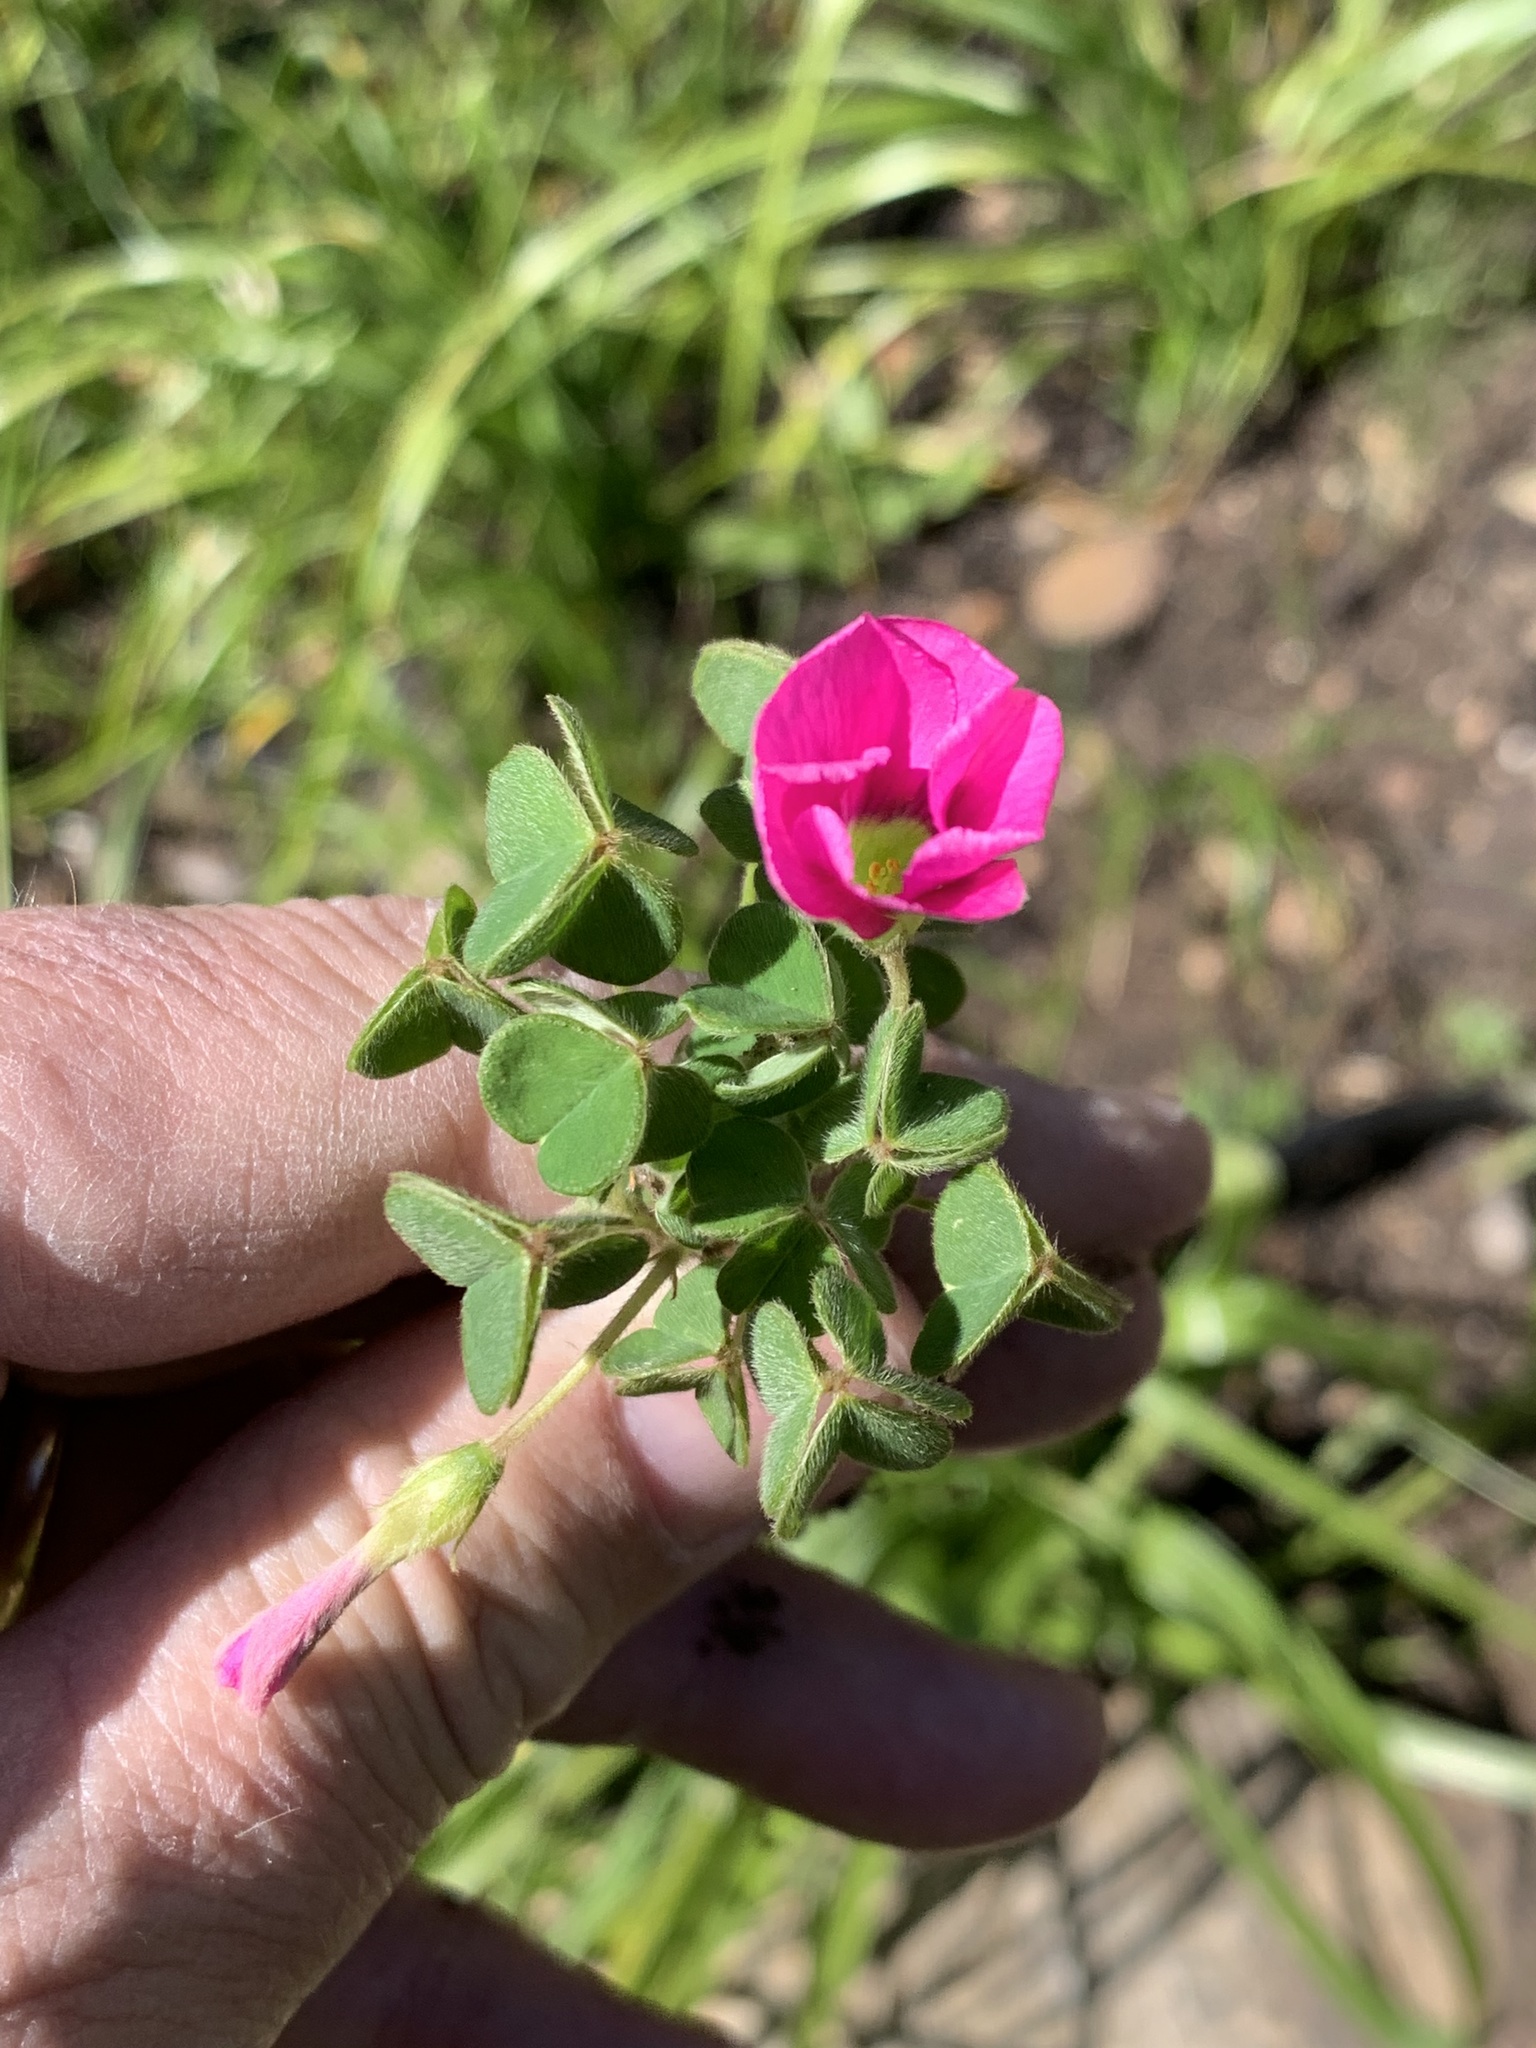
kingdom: Plantae
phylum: Tracheophyta
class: Magnoliopsida
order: Oxalidales
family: Oxalidaceae
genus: Oxalis
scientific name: Oxalis lanata
